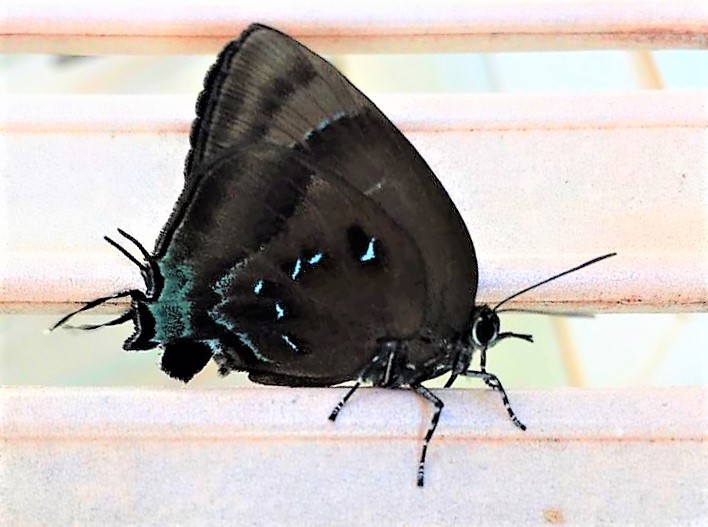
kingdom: Animalia
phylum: Arthropoda
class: Insecta
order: Lepidoptera
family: Lycaenidae
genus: Denivia
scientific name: Denivia
